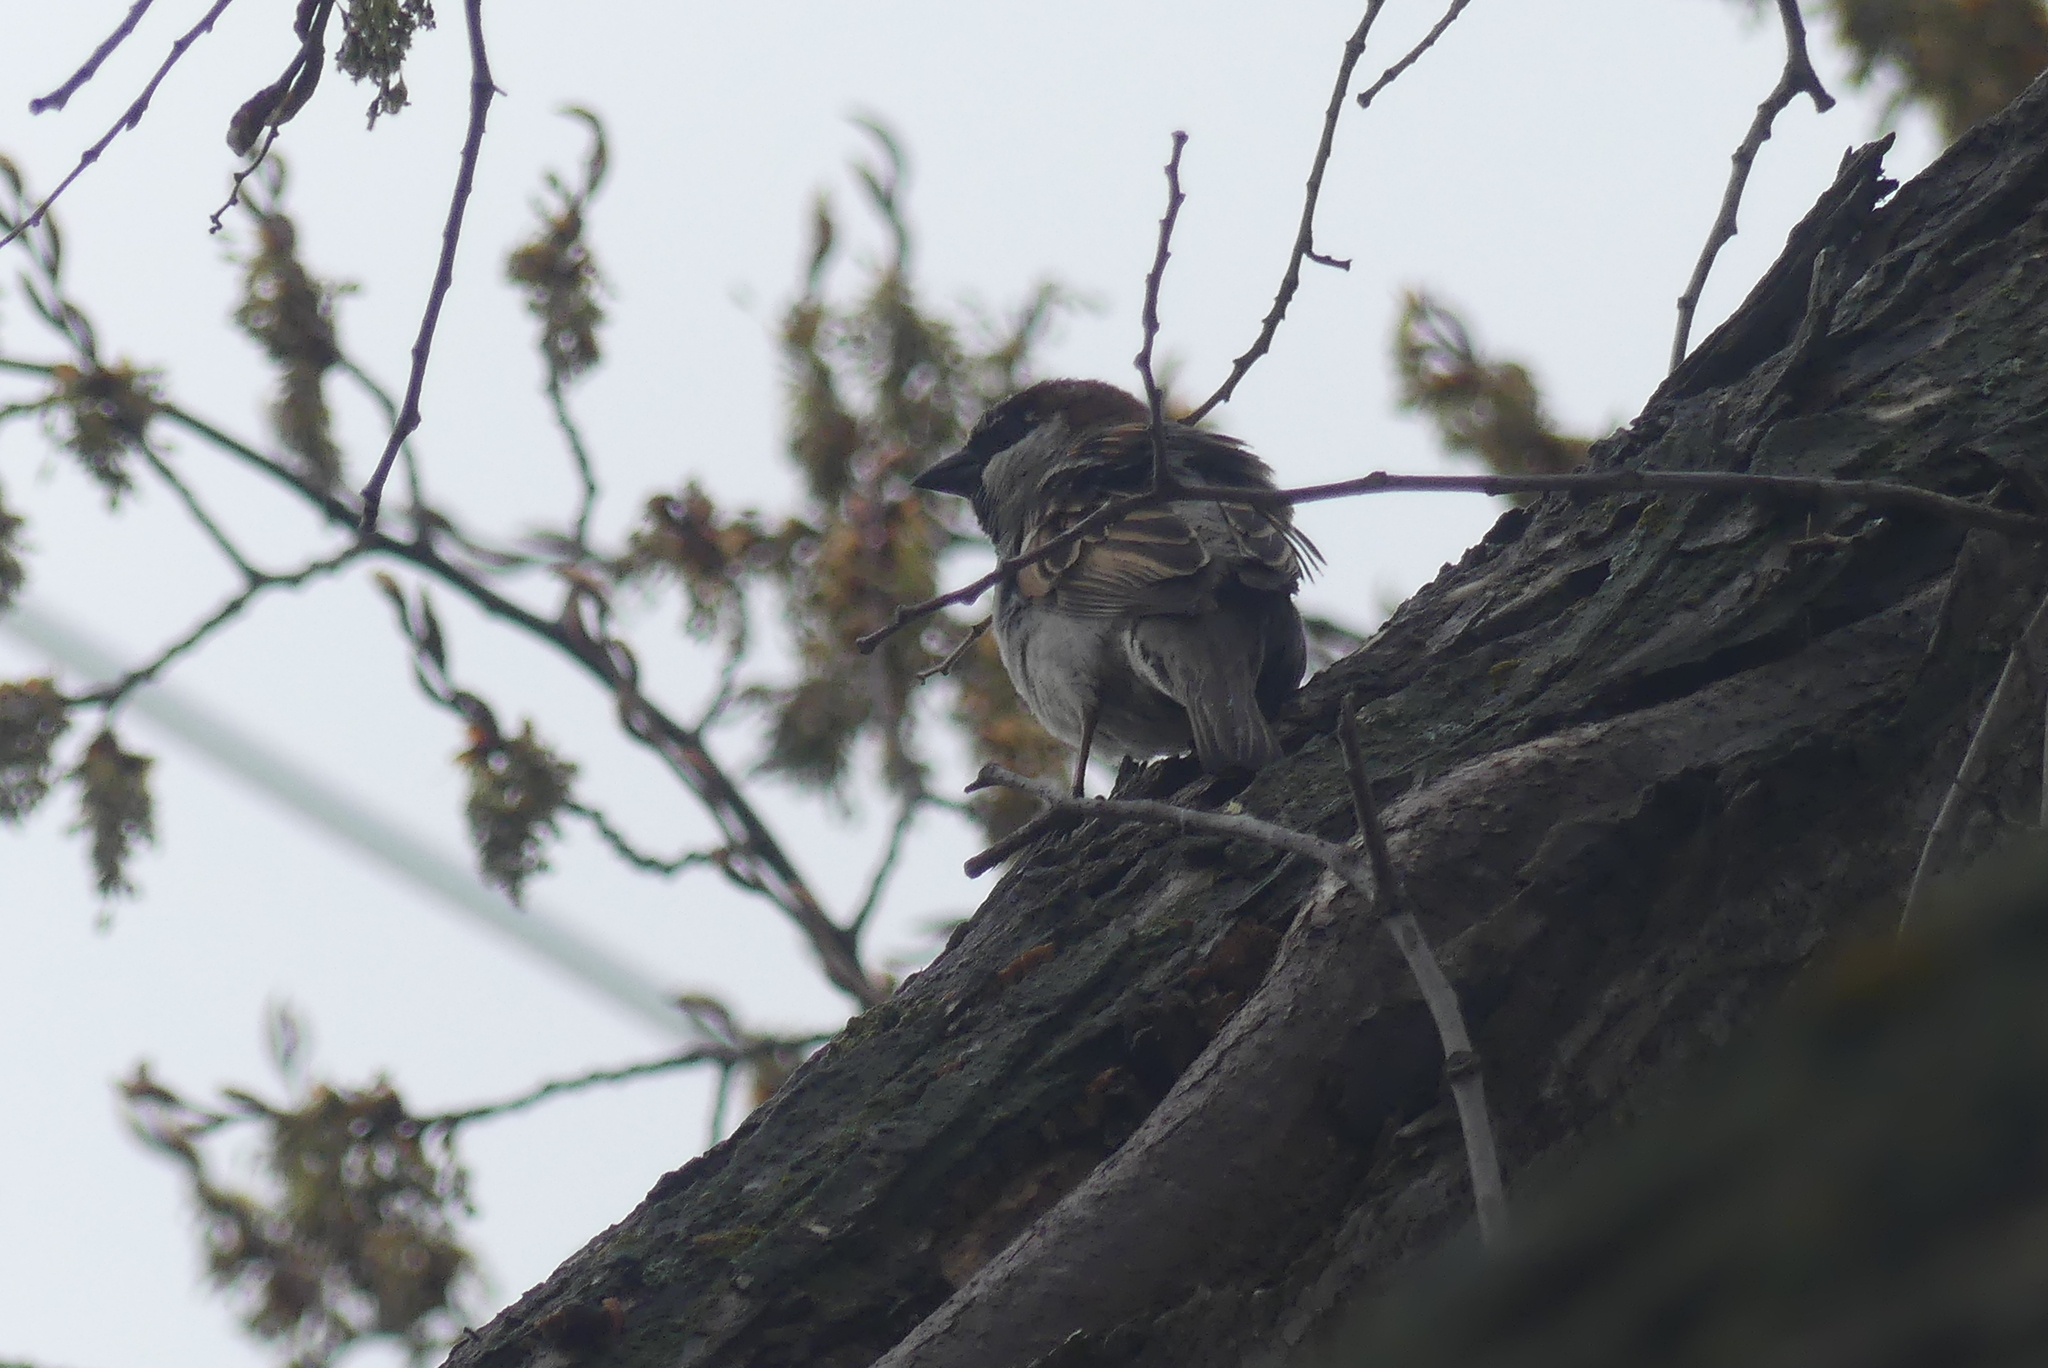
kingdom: Animalia
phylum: Chordata
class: Aves
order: Passeriformes
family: Passeridae
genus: Passer
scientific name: Passer domesticus
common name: House sparrow
